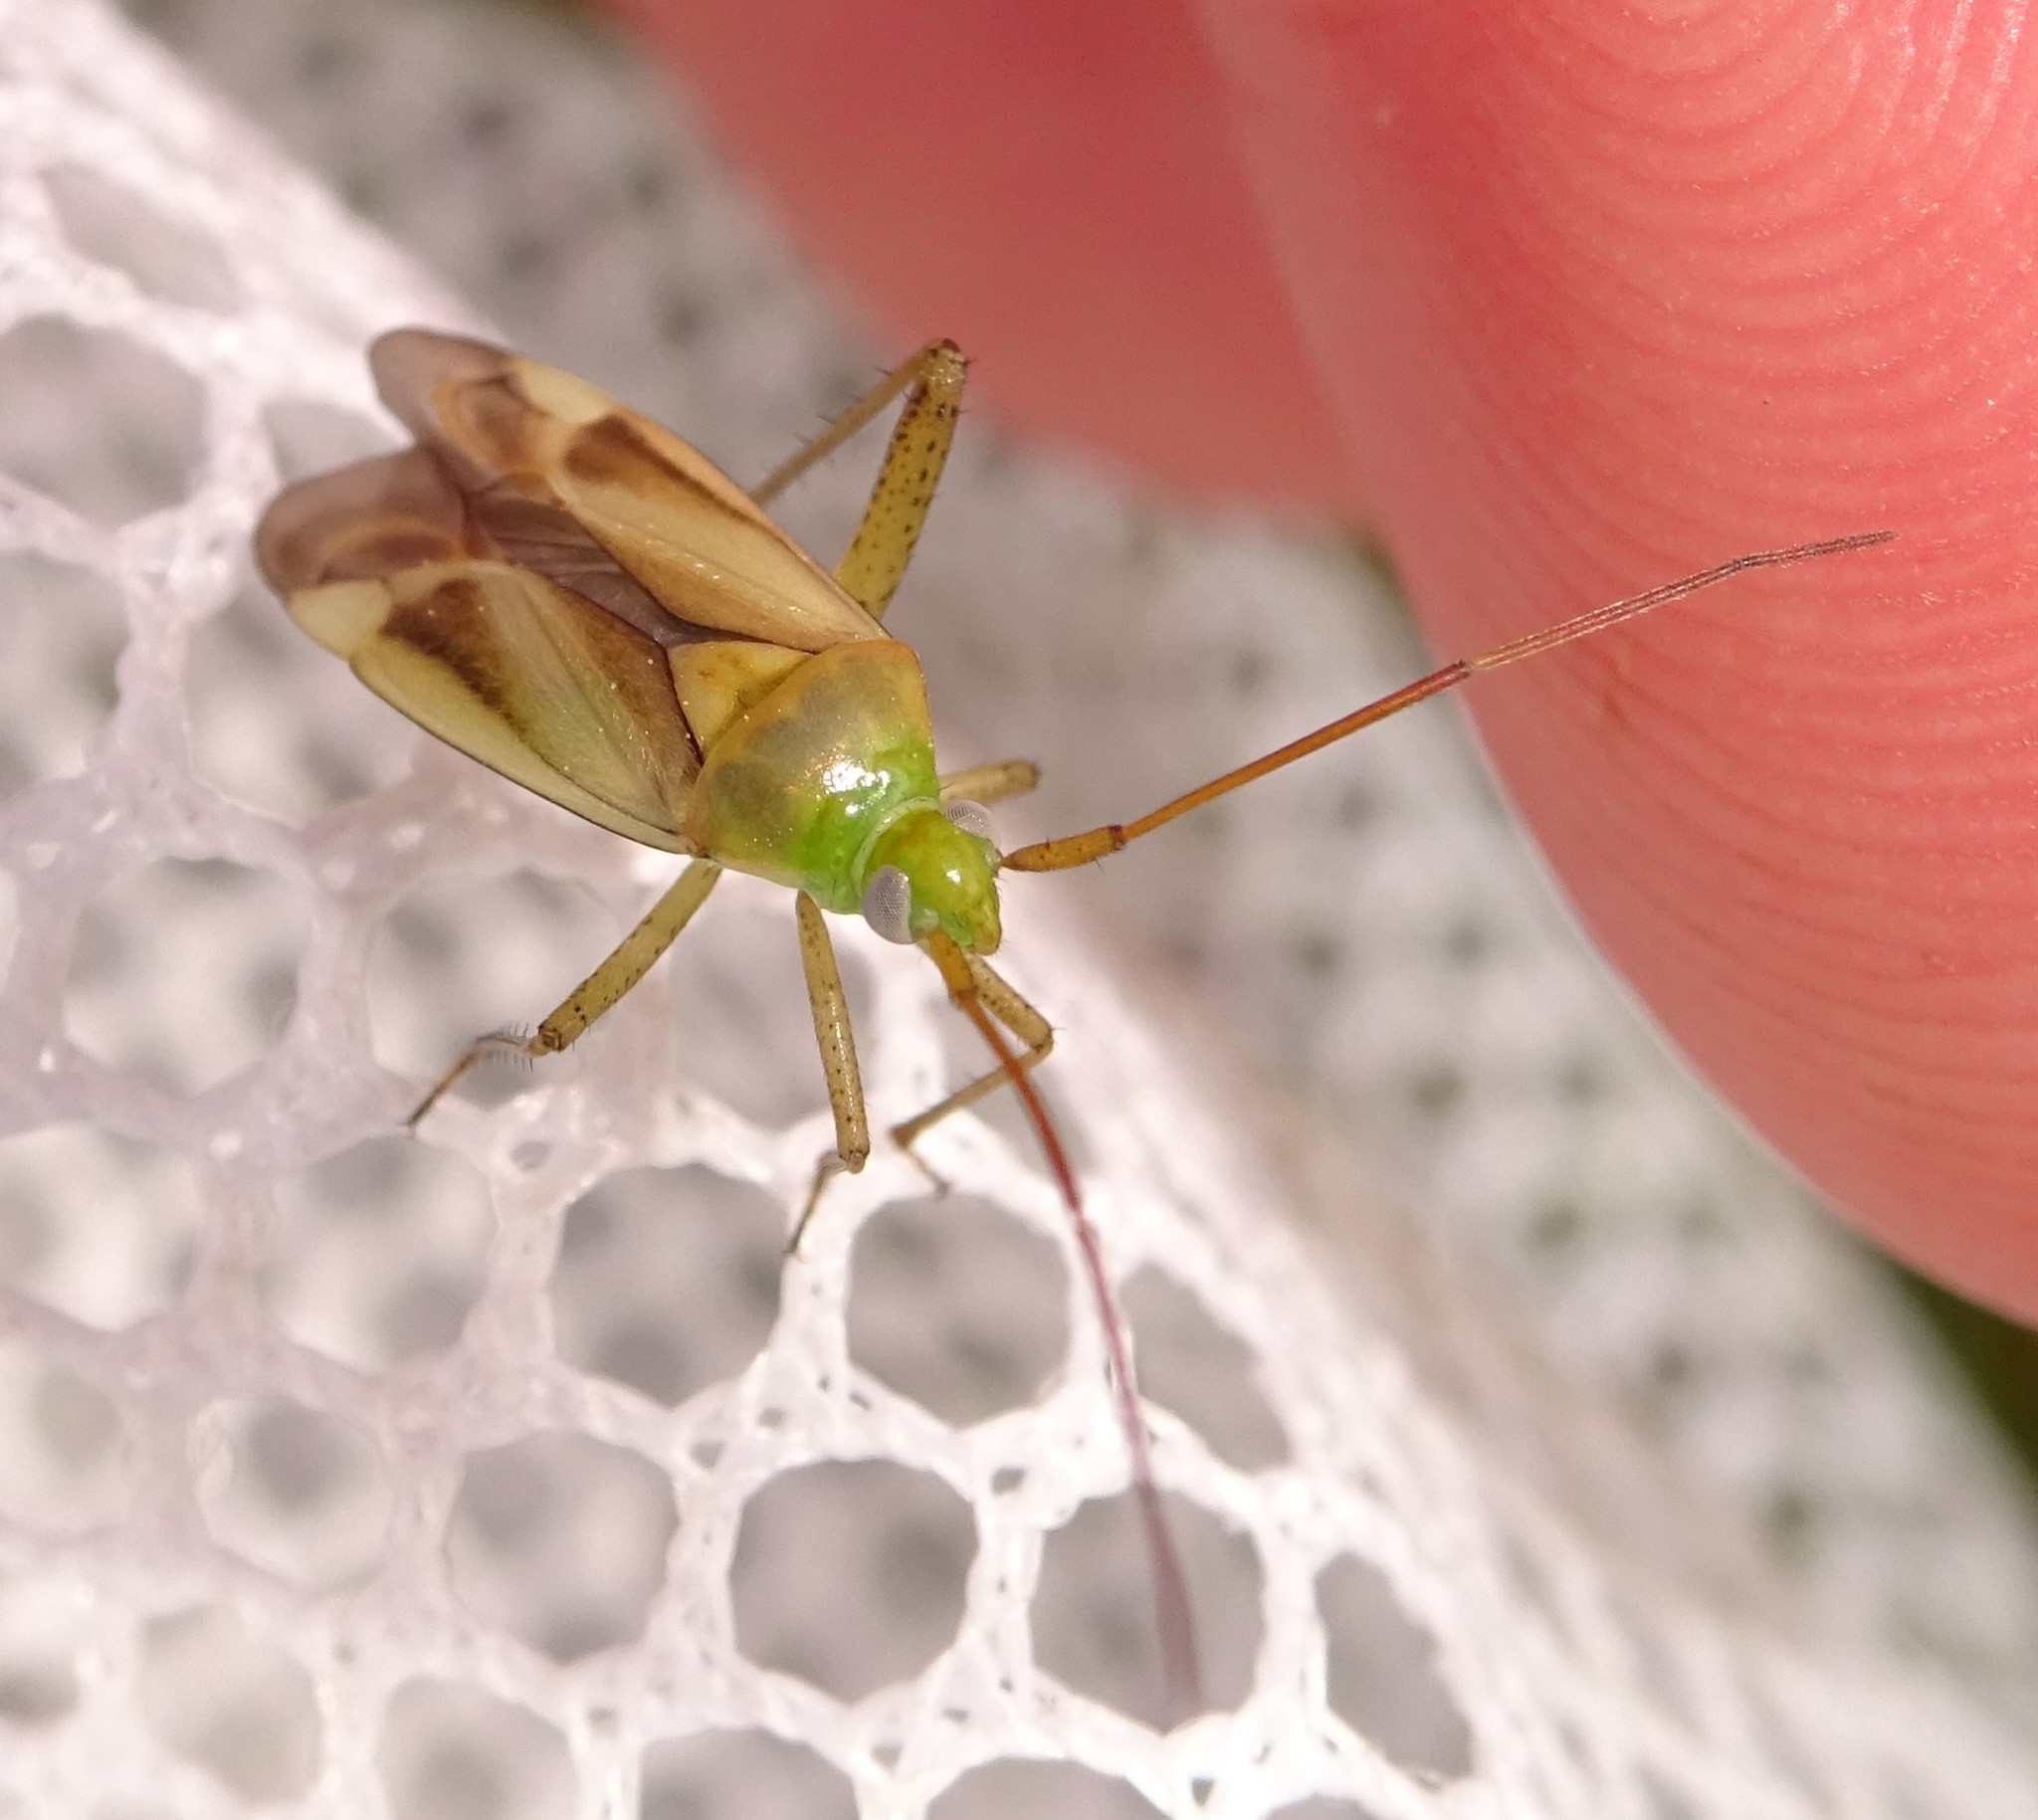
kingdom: Animalia
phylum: Arthropoda
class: Insecta
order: Hemiptera
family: Miridae
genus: Adelphocoris
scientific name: Adelphocoris lineolatus
